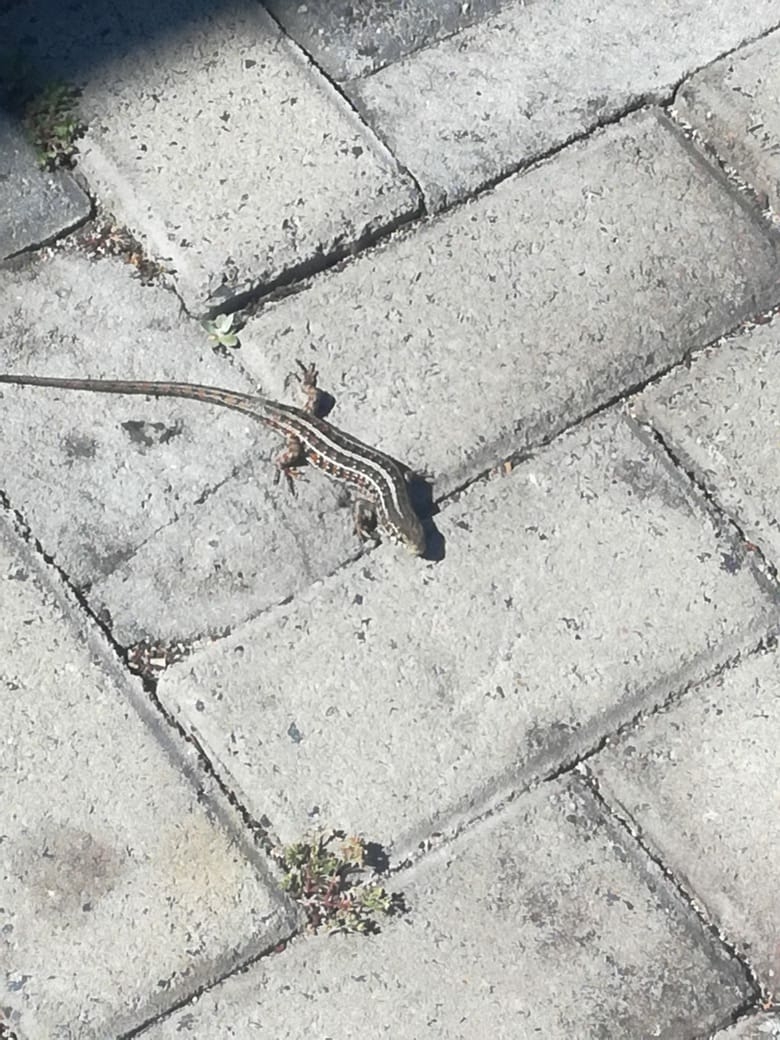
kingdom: Animalia
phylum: Chordata
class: Squamata
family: Scincidae
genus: Trachylepis
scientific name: Trachylepis capensis
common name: Cape skink
